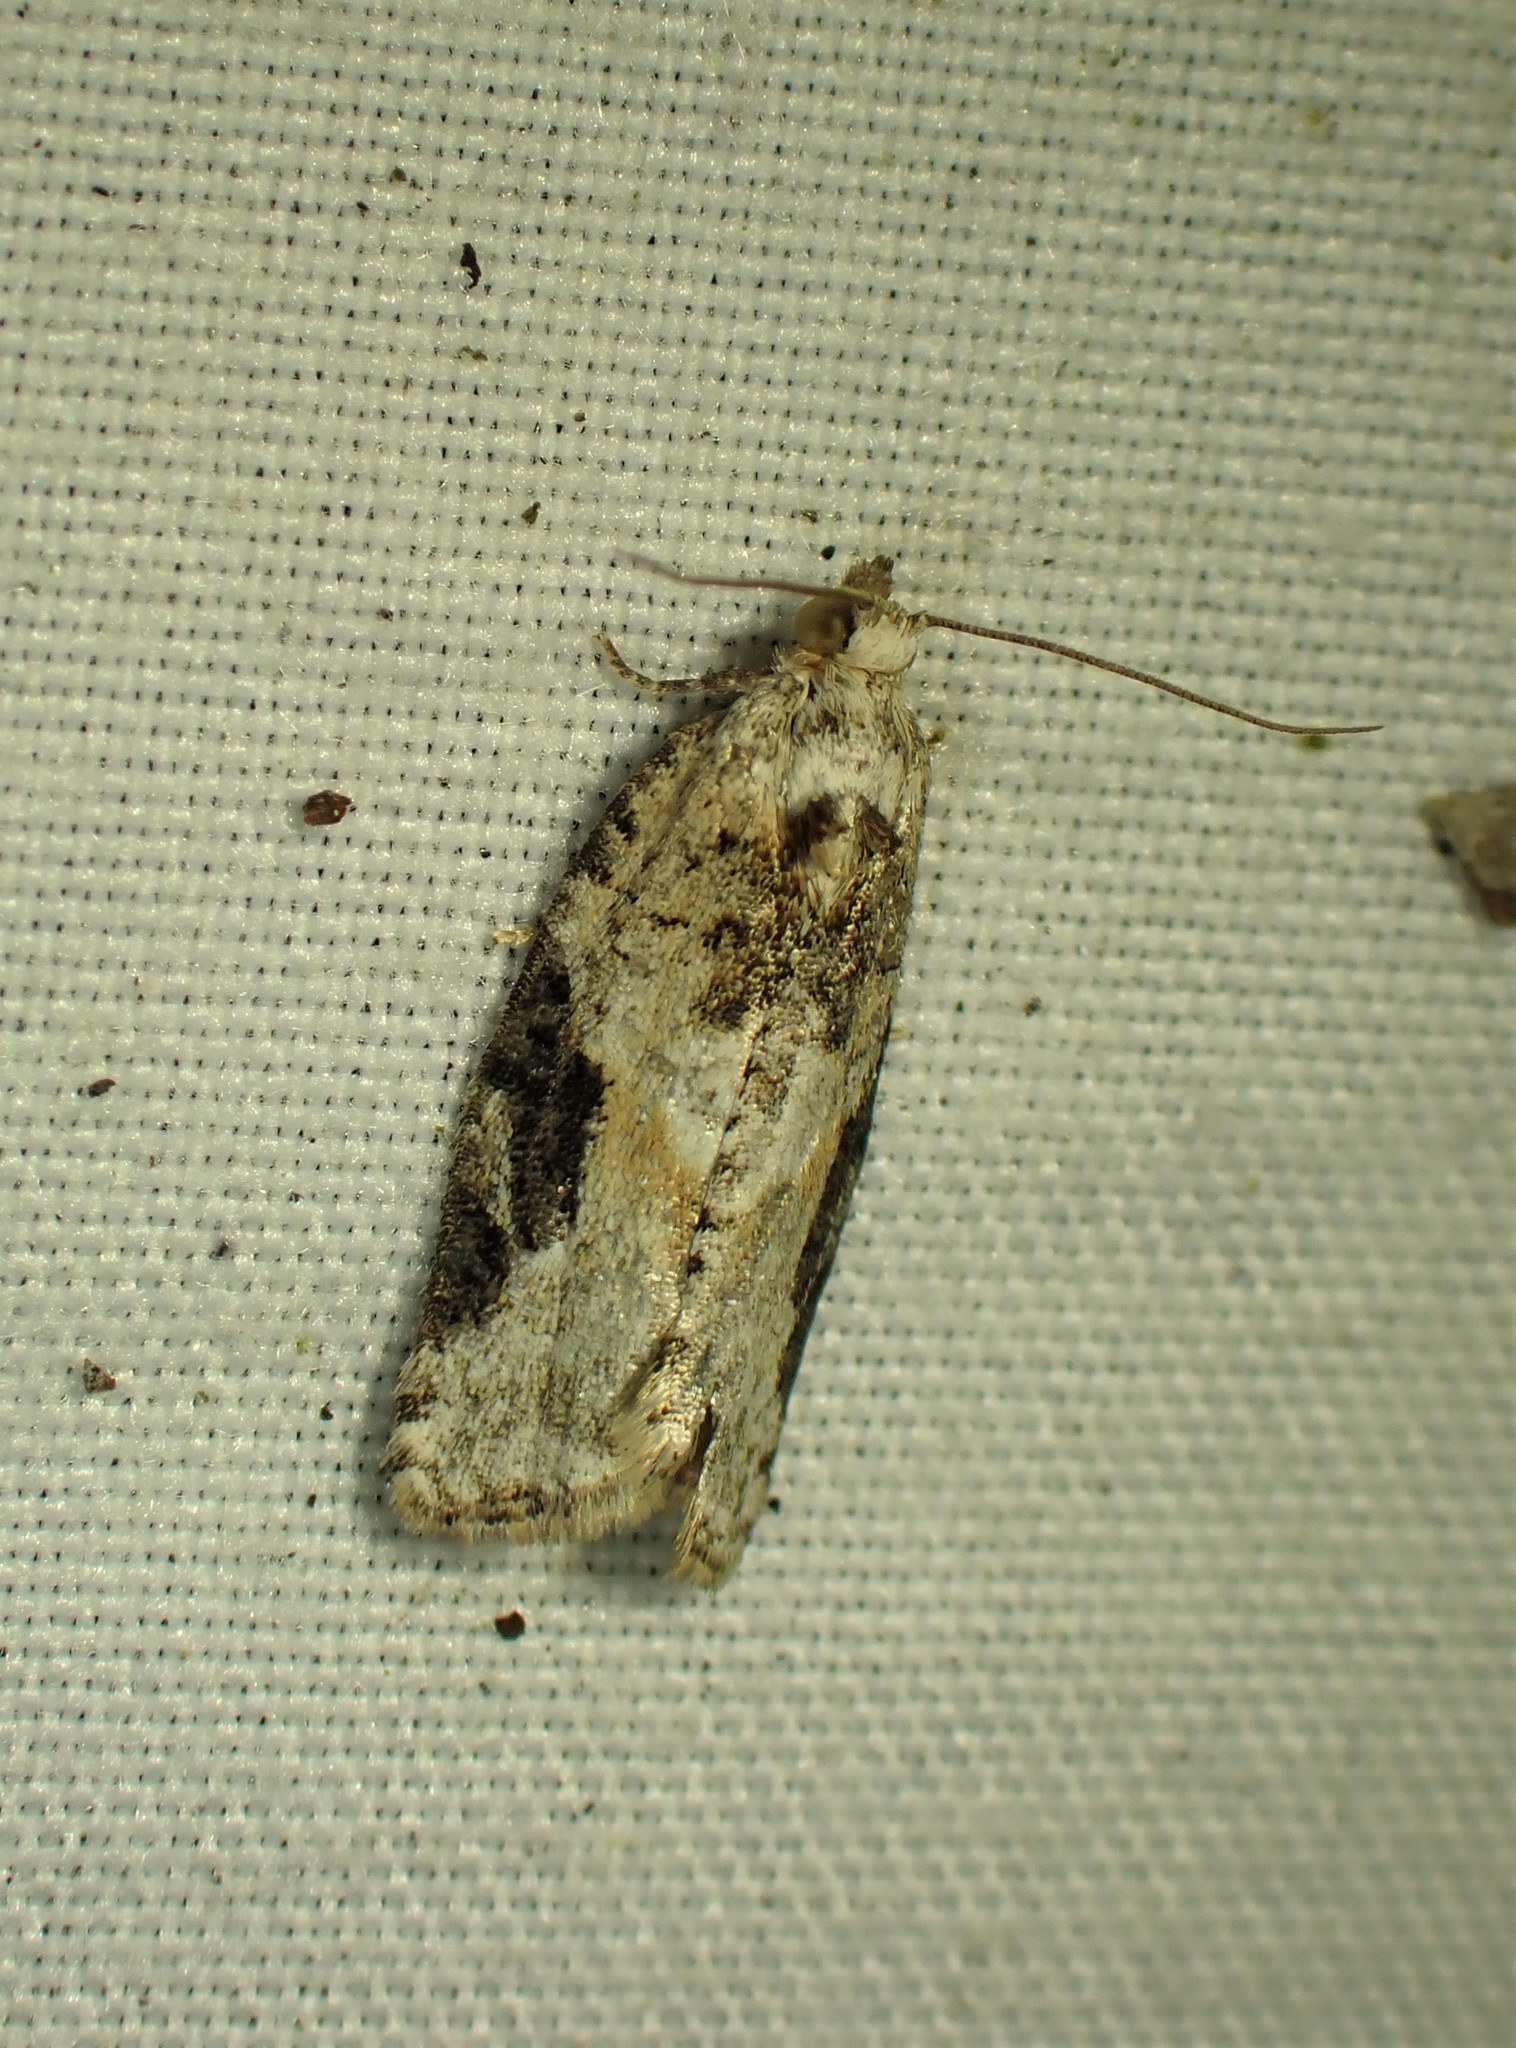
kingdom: Animalia
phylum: Arthropoda
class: Insecta
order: Lepidoptera
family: Tortricidae
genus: Argyrotaenia
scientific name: Argyrotaenia mariana
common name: Gray-banded leafroller moth
